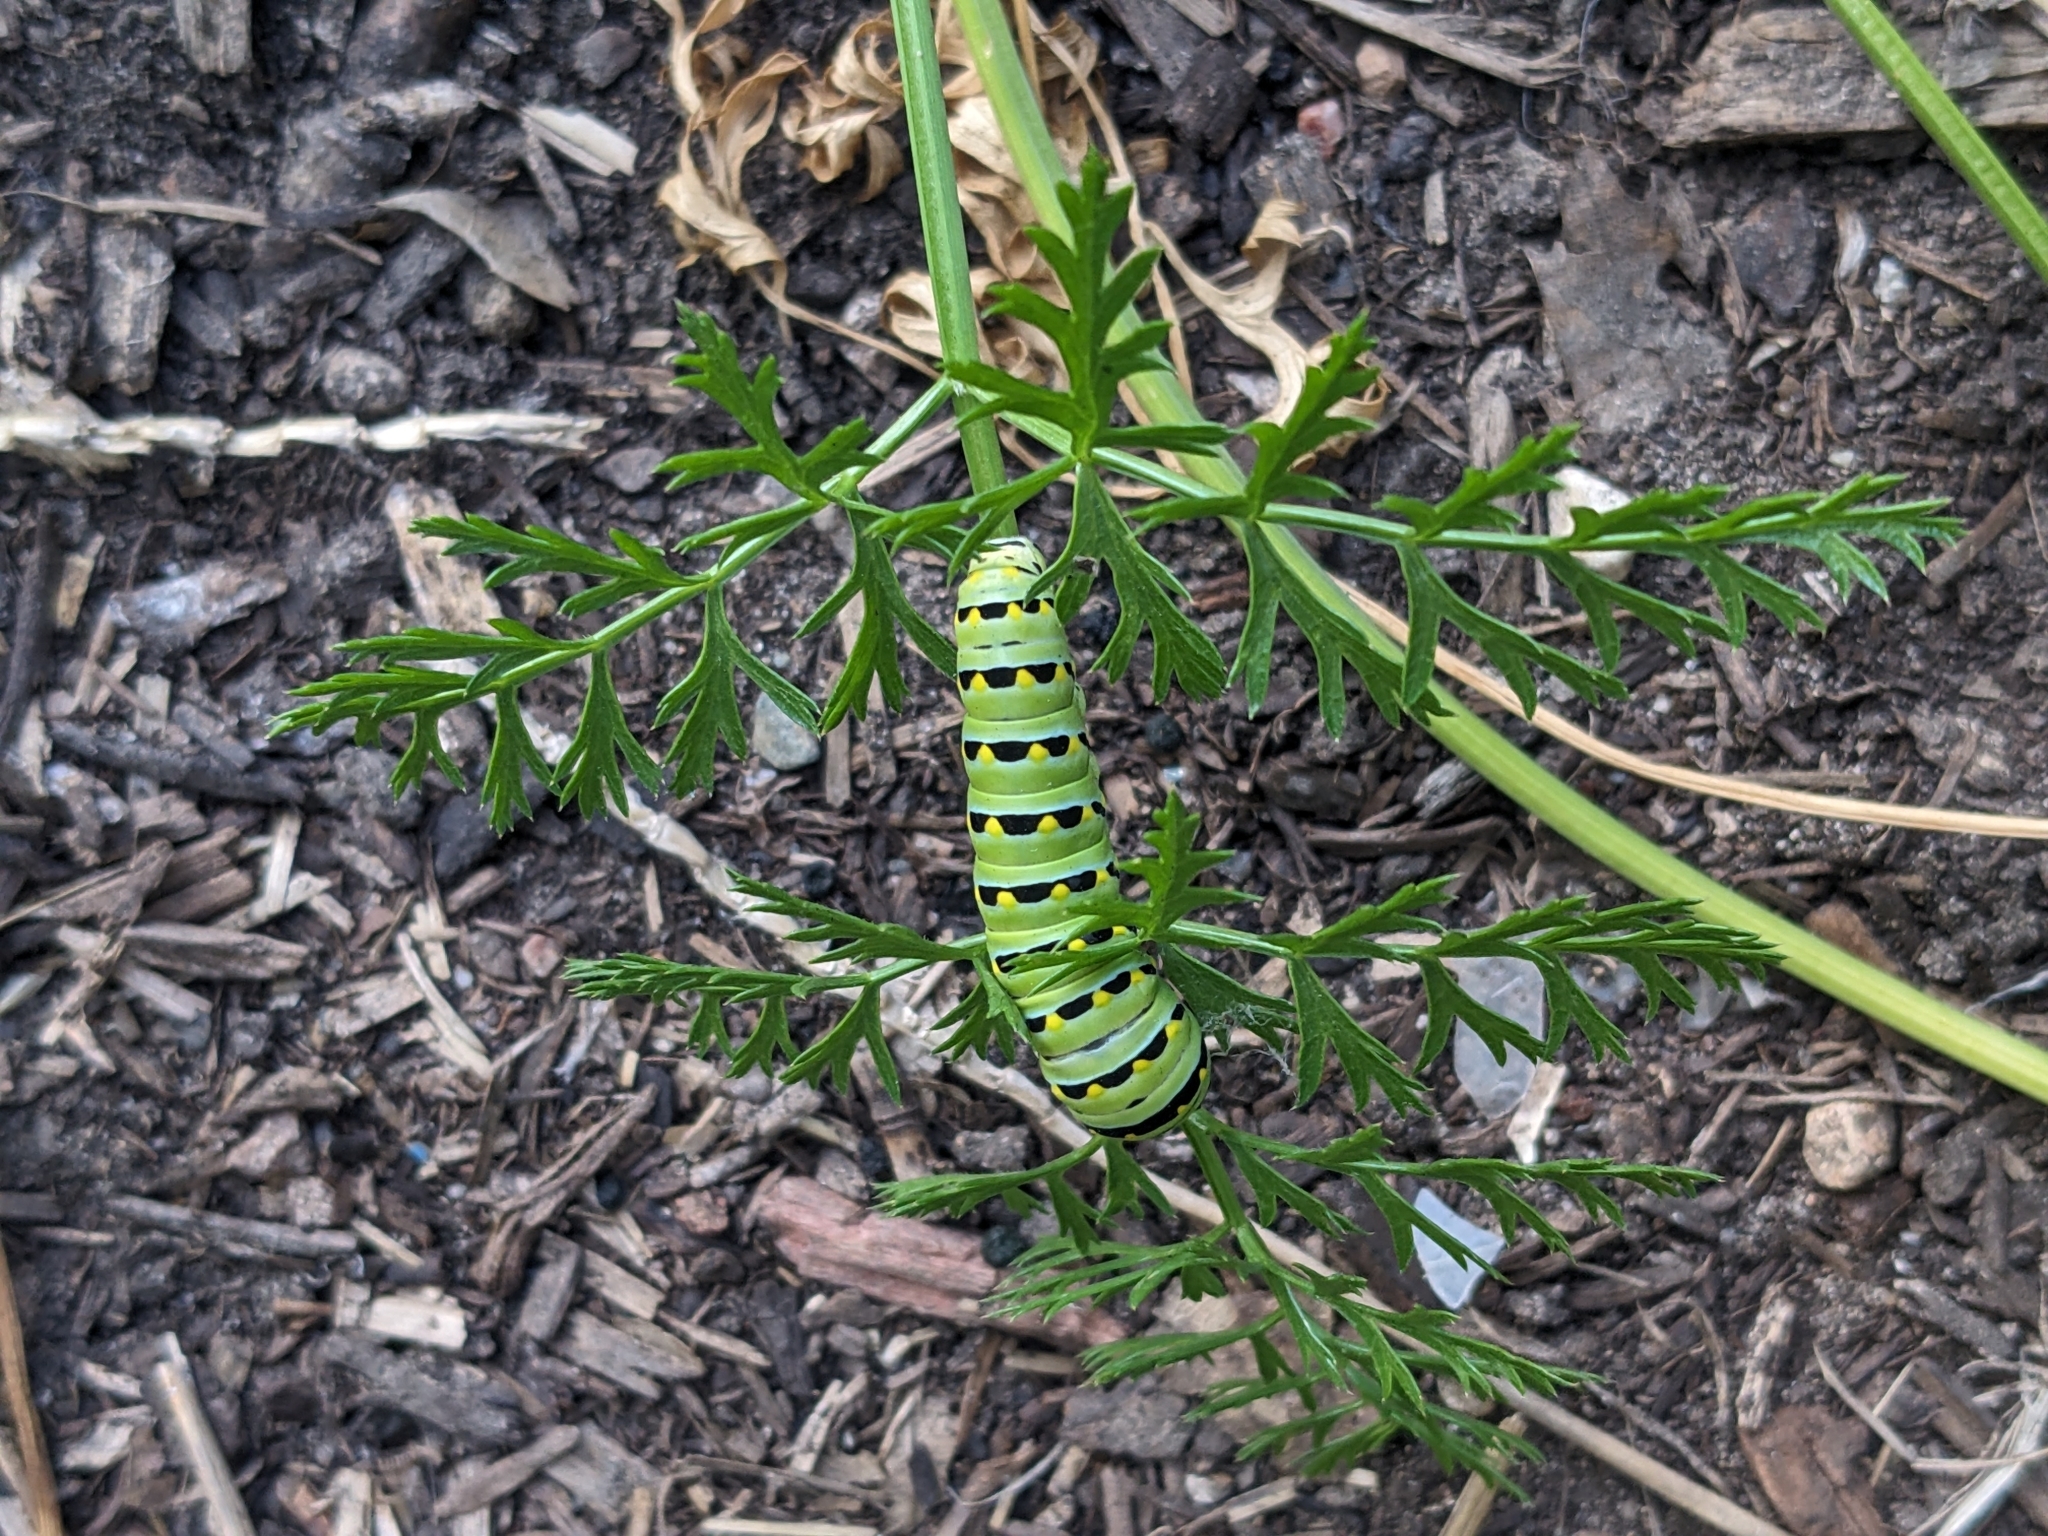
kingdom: Animalia
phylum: Arthropoda
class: Insecta
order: Lepidoptera
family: Papilionidae
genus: Papilio
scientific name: Papilio polyxenes
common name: Black swallowtail
